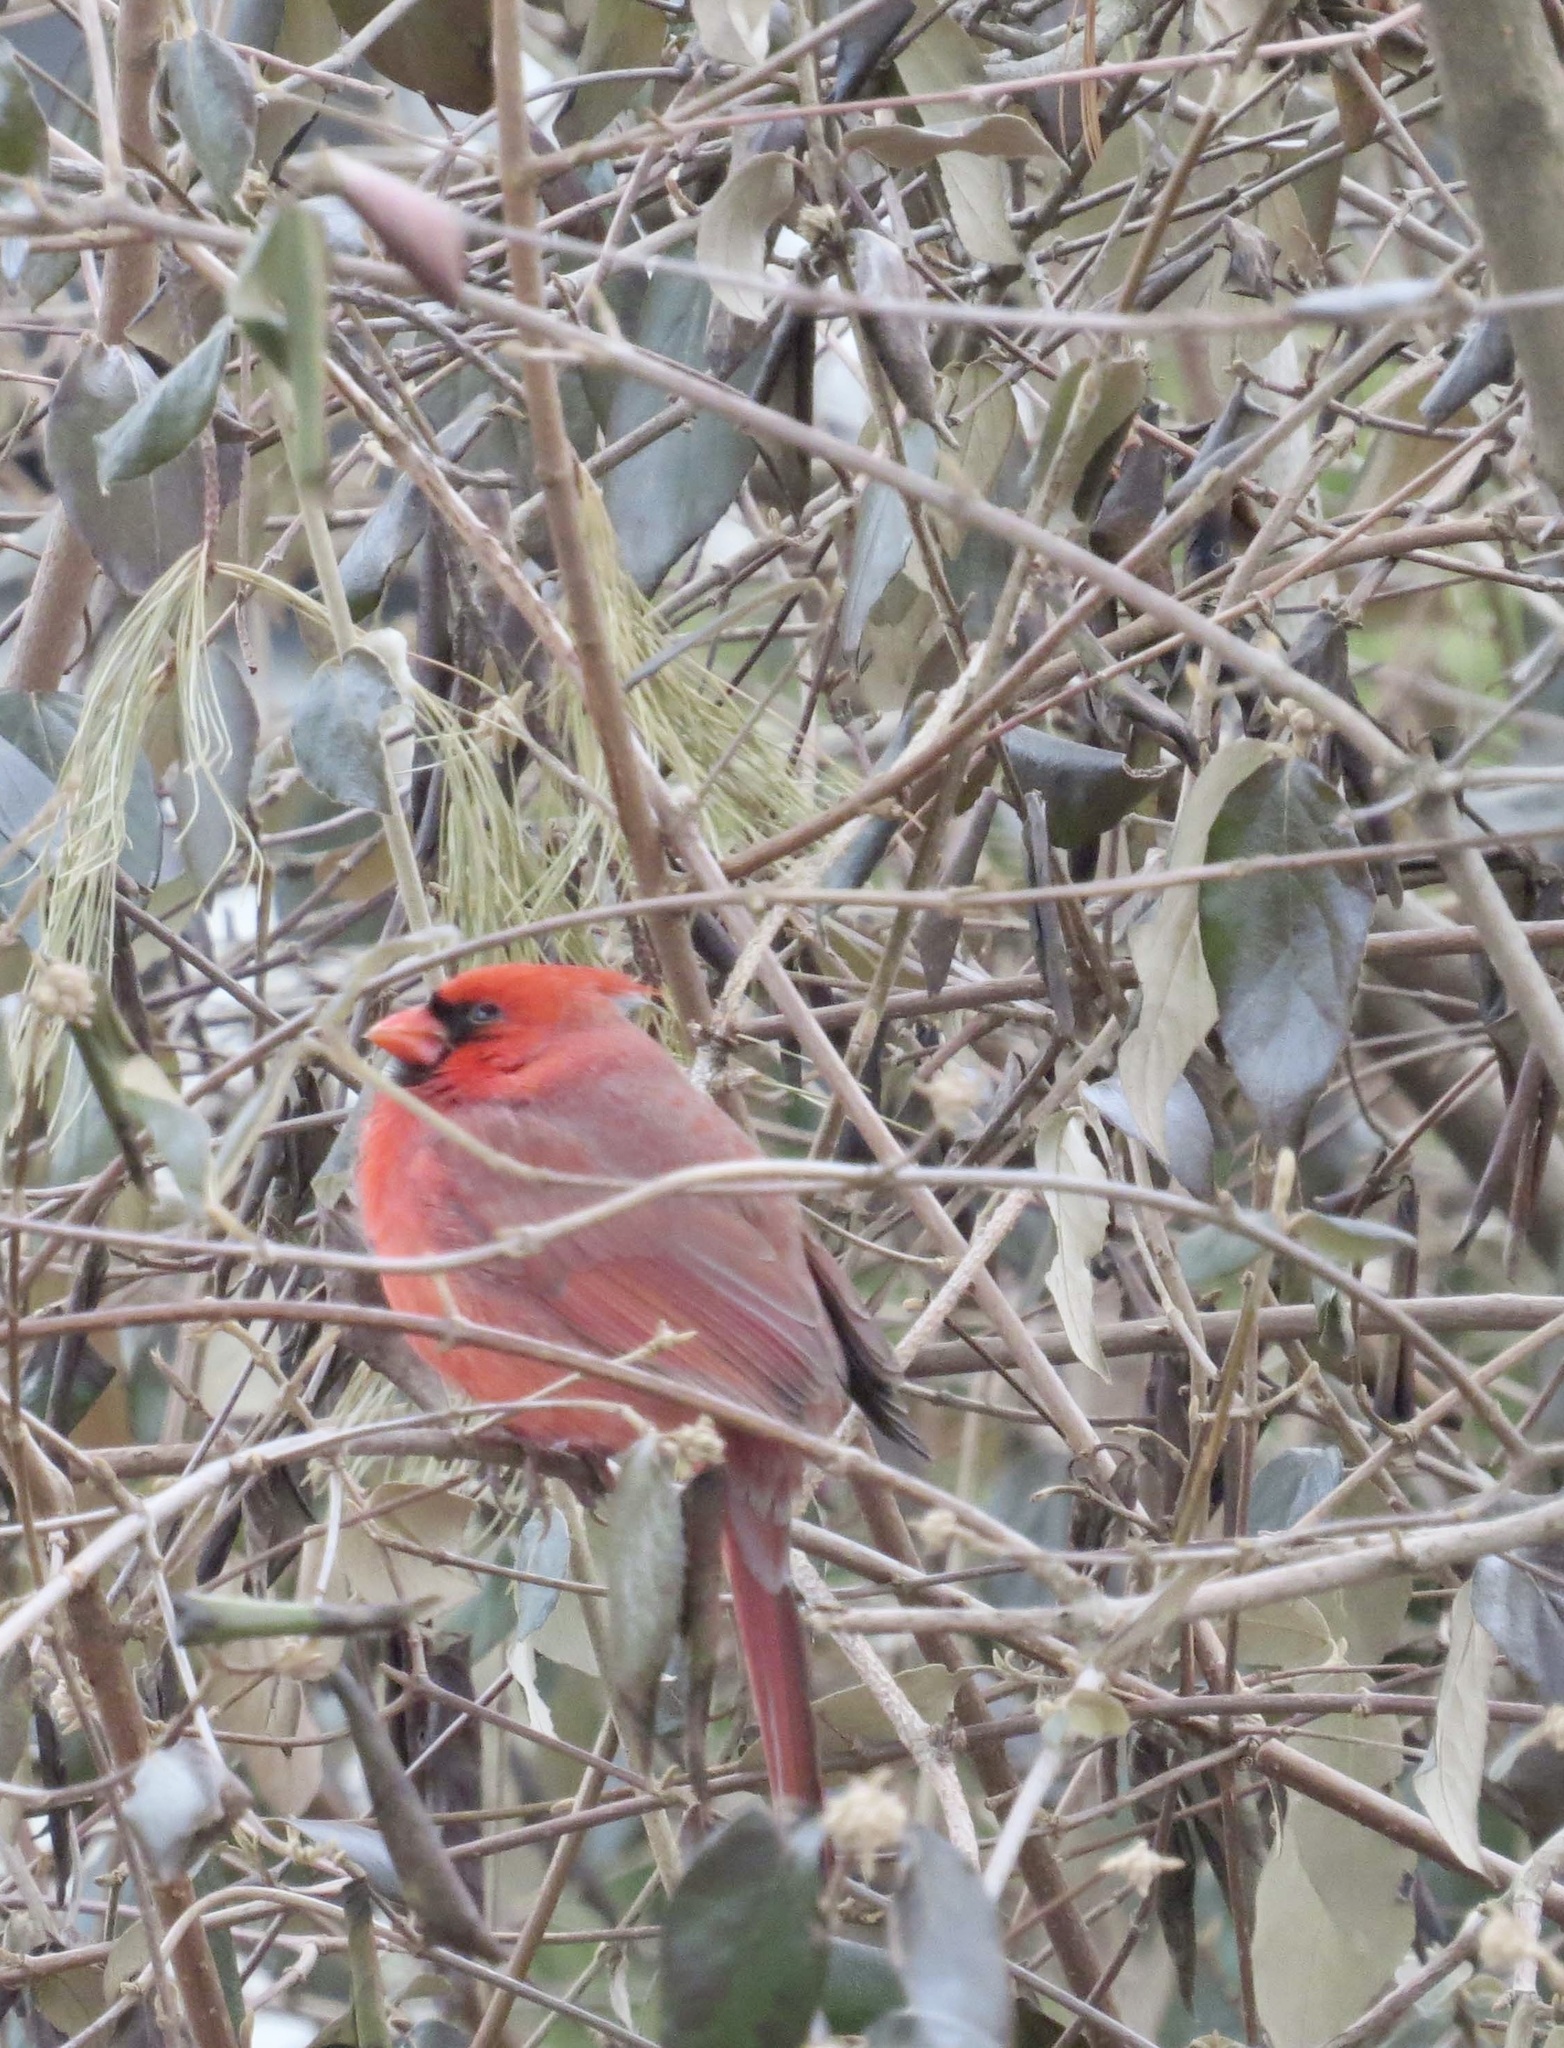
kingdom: Animalia
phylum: Chordata
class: Aves
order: Passeriformes
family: Cardinalidae
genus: Cardinalis
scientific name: Cardinalis cardinalis
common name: Northern cardinal
